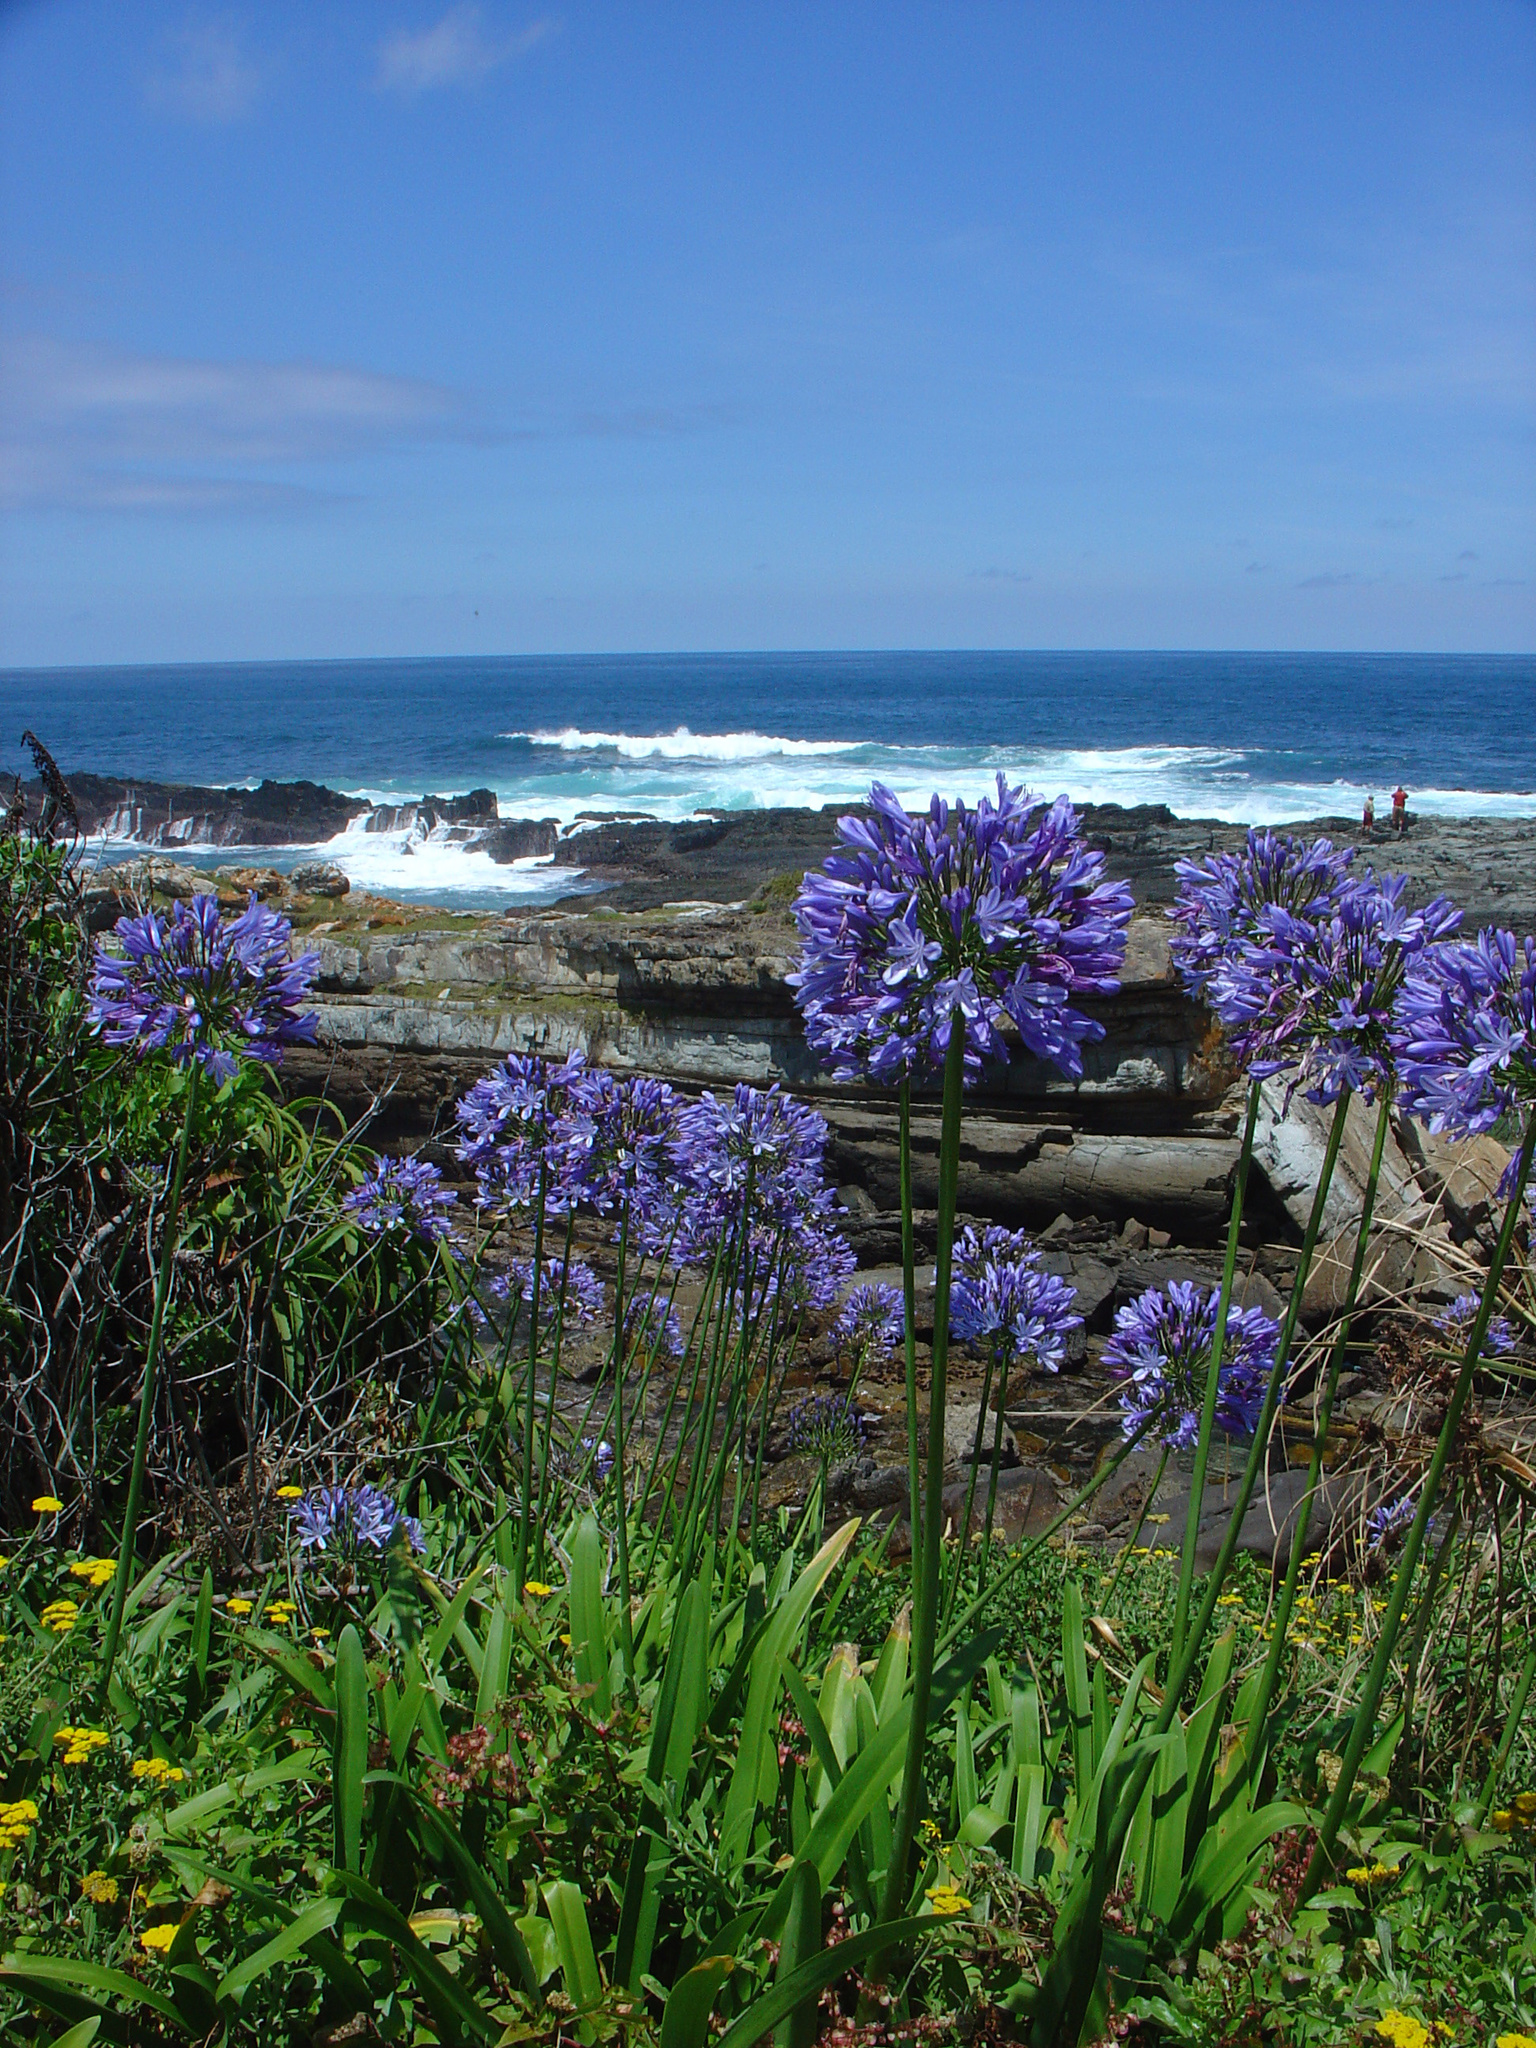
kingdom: Plantae
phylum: Tracheophyta
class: Liliopsida
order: Asparagales
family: Amaryllidaceae
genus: Agapanthus
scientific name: Agapanthus praecox
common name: African-lily
